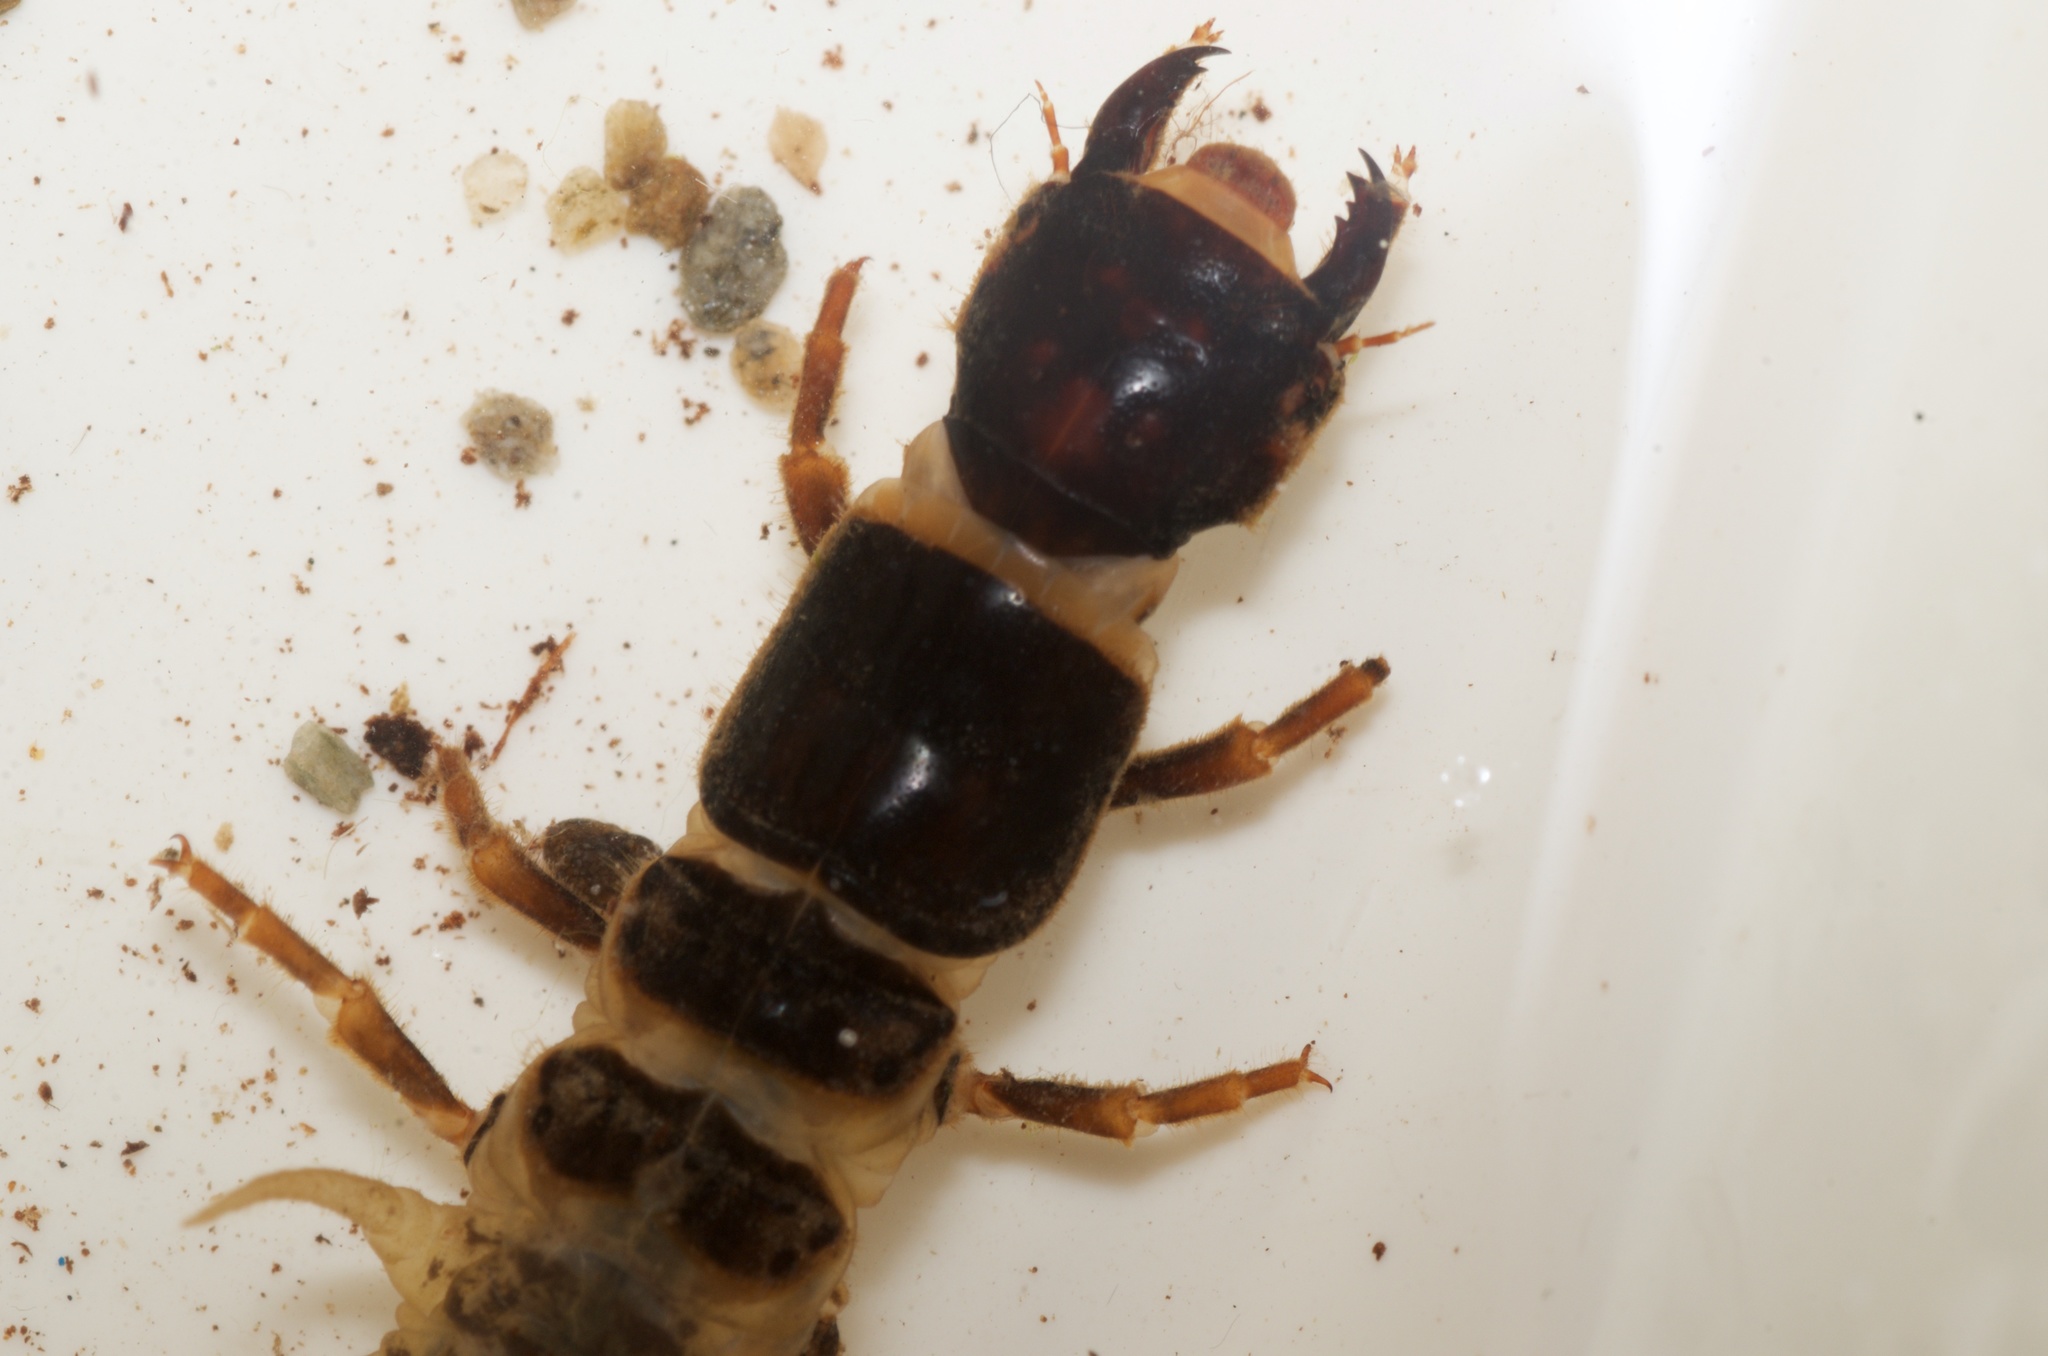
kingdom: Animalia
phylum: Arthropoda
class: Insecta
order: Megaloptera
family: Corydalidae
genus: Archichauliodes
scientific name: Archichauliodes diversus
